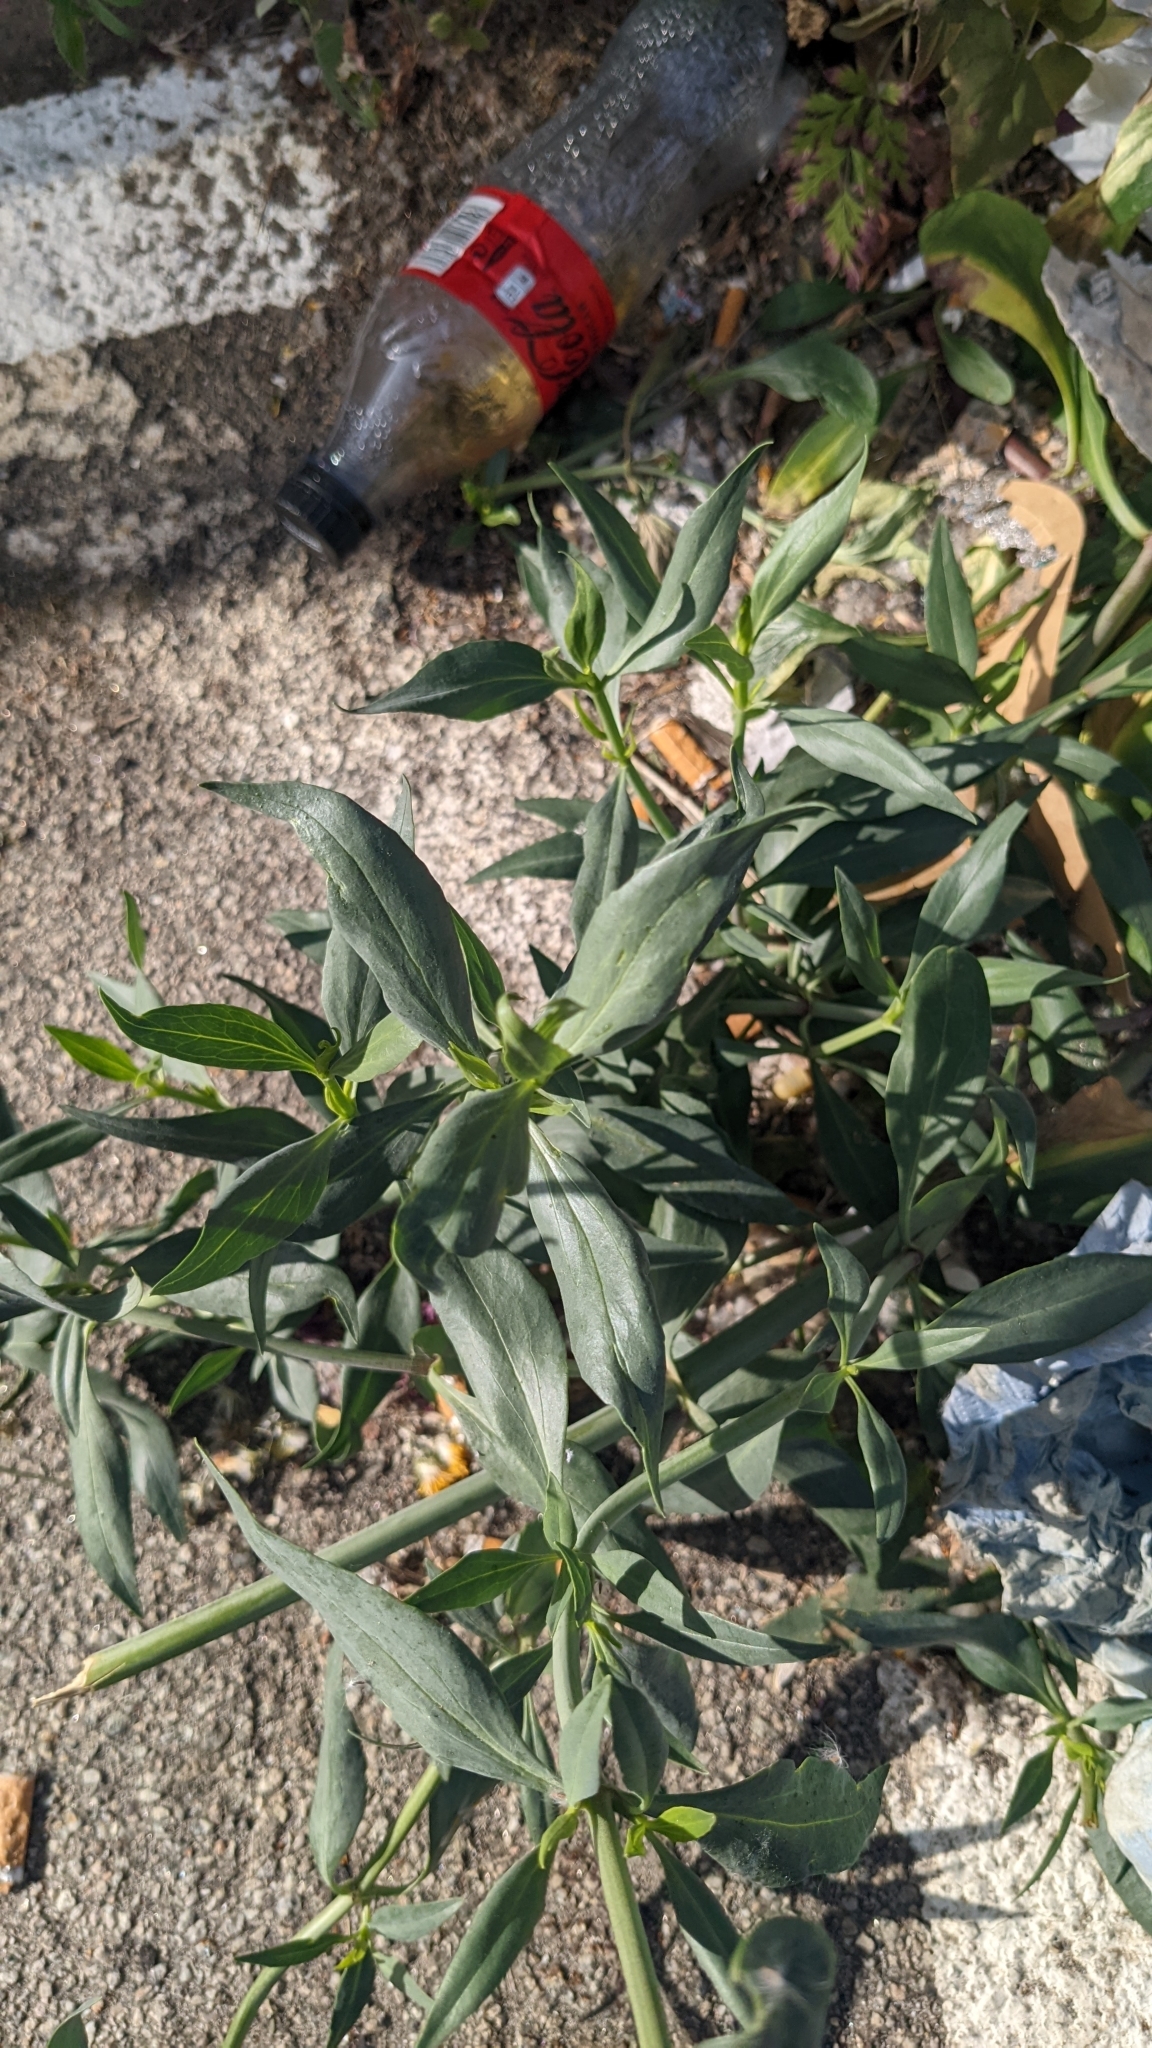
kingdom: Plantae
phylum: Tracheophyta
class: Magnoliopsida
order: Dipsacales
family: Caprifoliaceae
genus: Centranthus
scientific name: Centranthus ruber
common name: Red valerian
